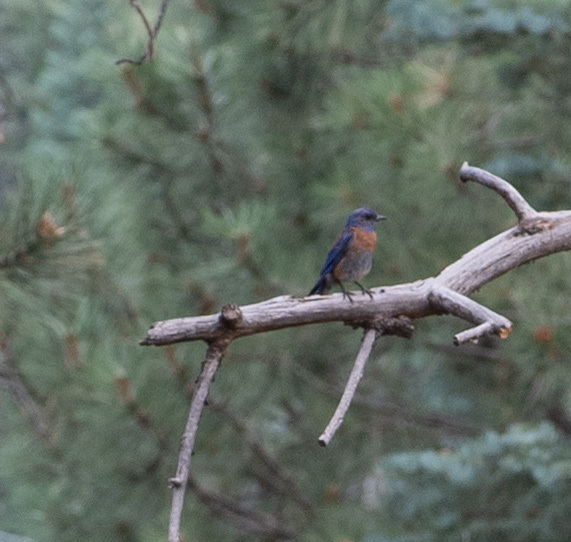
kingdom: Animalia
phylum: Chordata
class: Aves
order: Passeriformes
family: Turdidae
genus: Sialia
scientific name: Sialia mexicana
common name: Western bluebird
